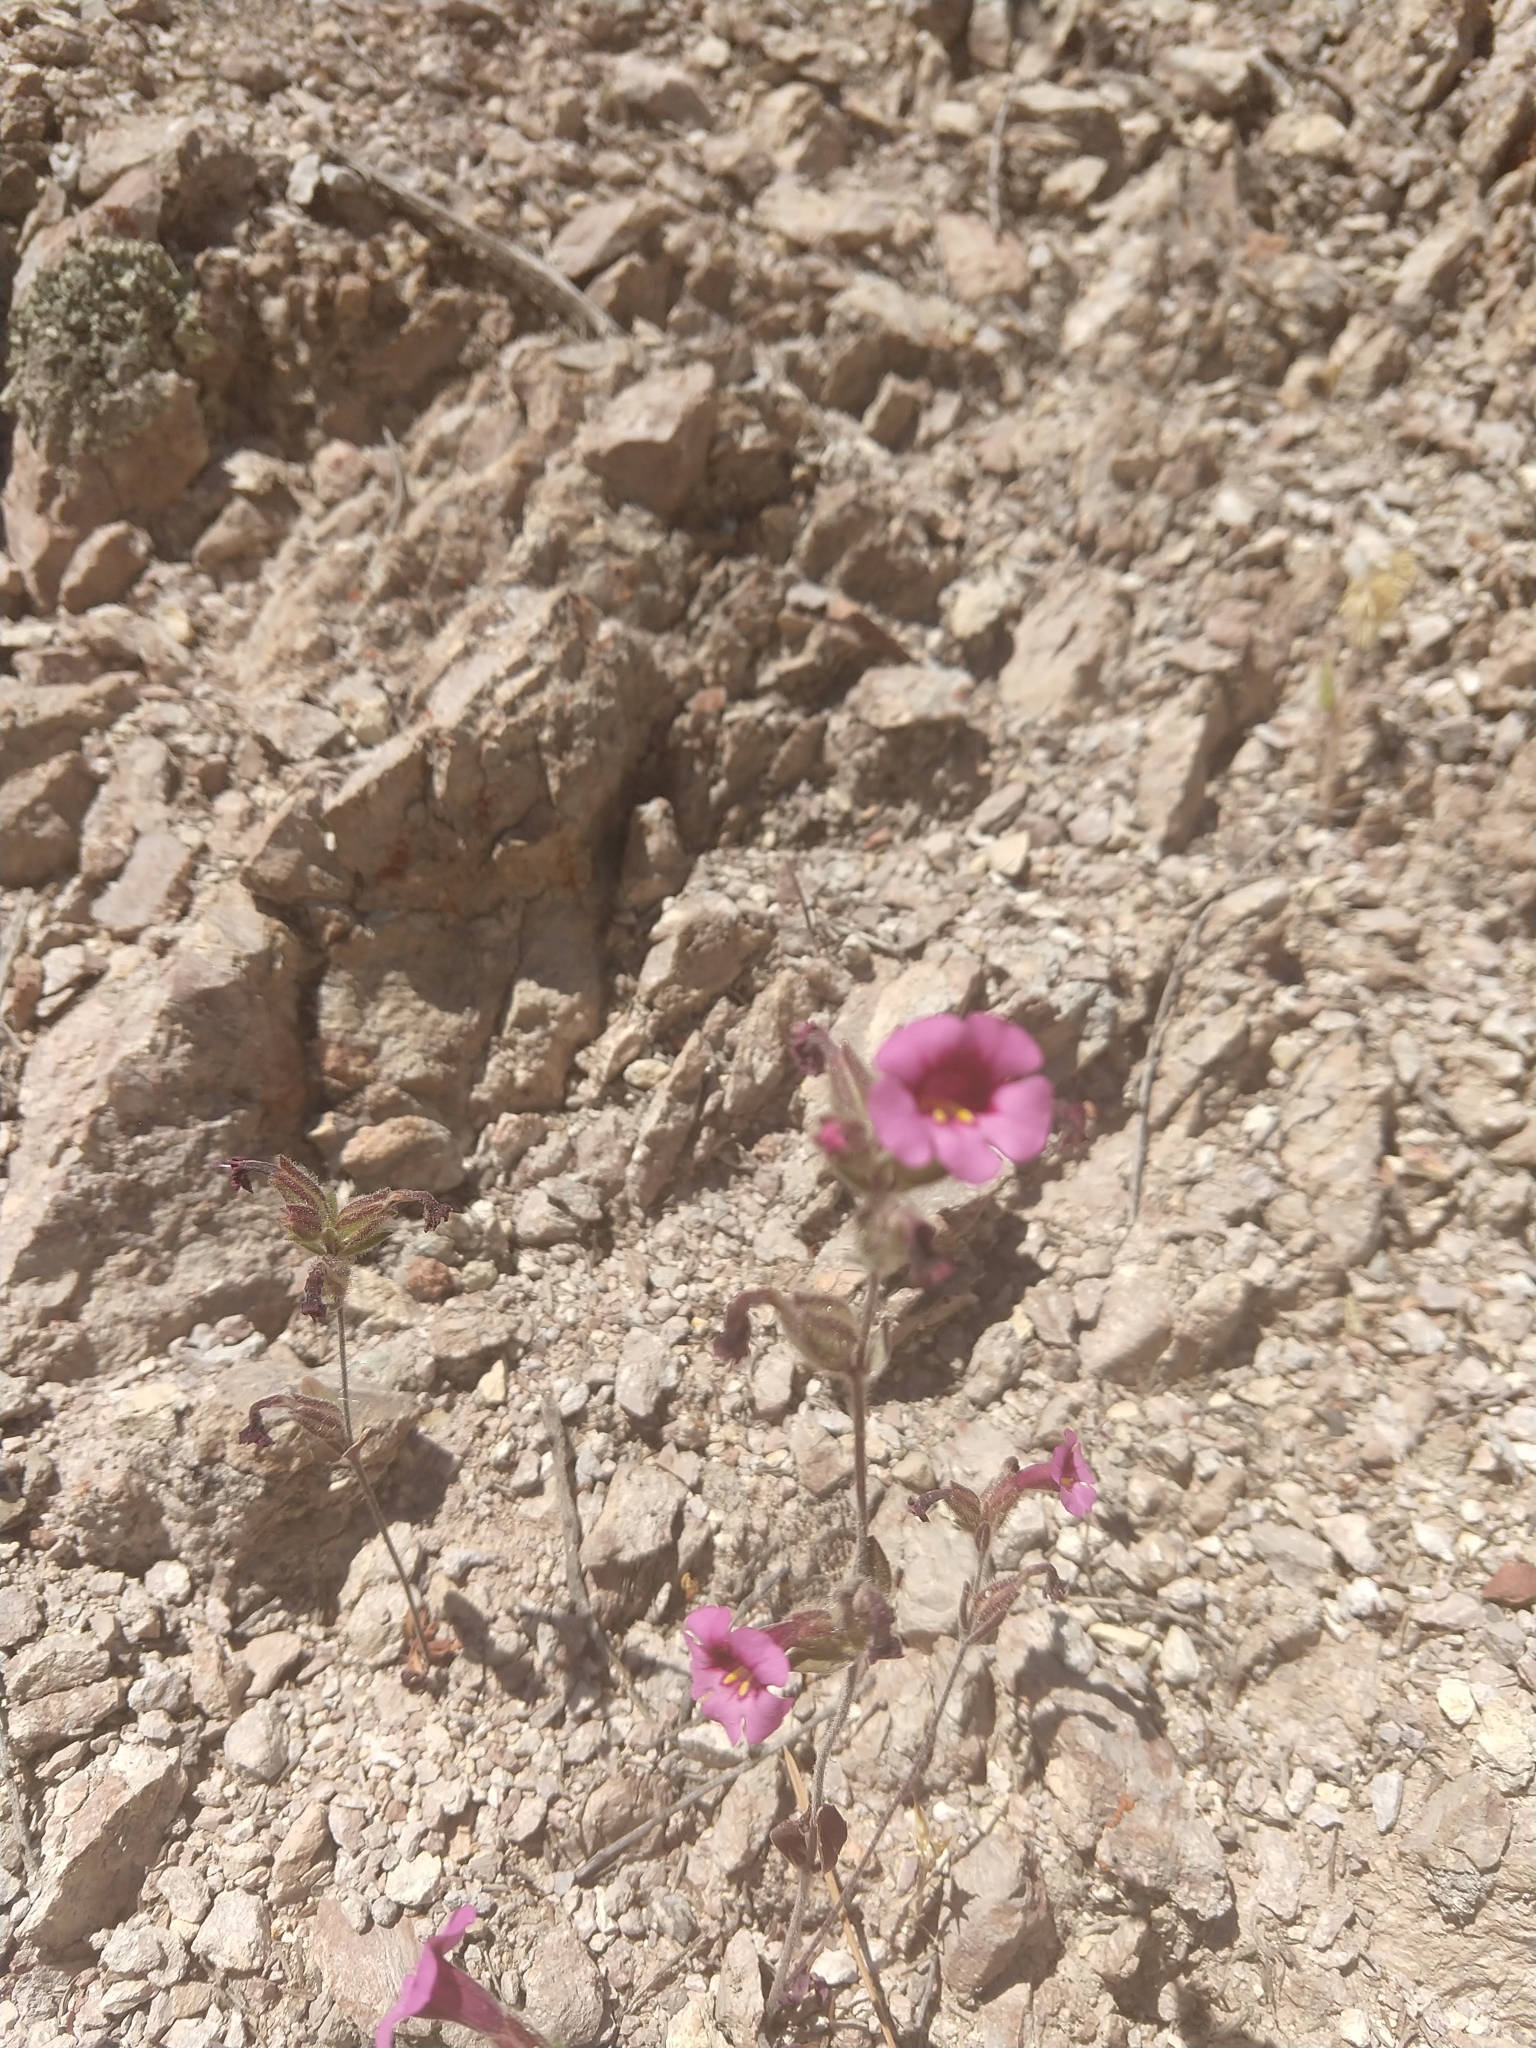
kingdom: Plantae
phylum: Tracheophyta
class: Magnoliopsida
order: Lamiales
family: Phrymaceae
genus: Diplacus
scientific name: Diplacus fremontii
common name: Fremont's monkey-flower
